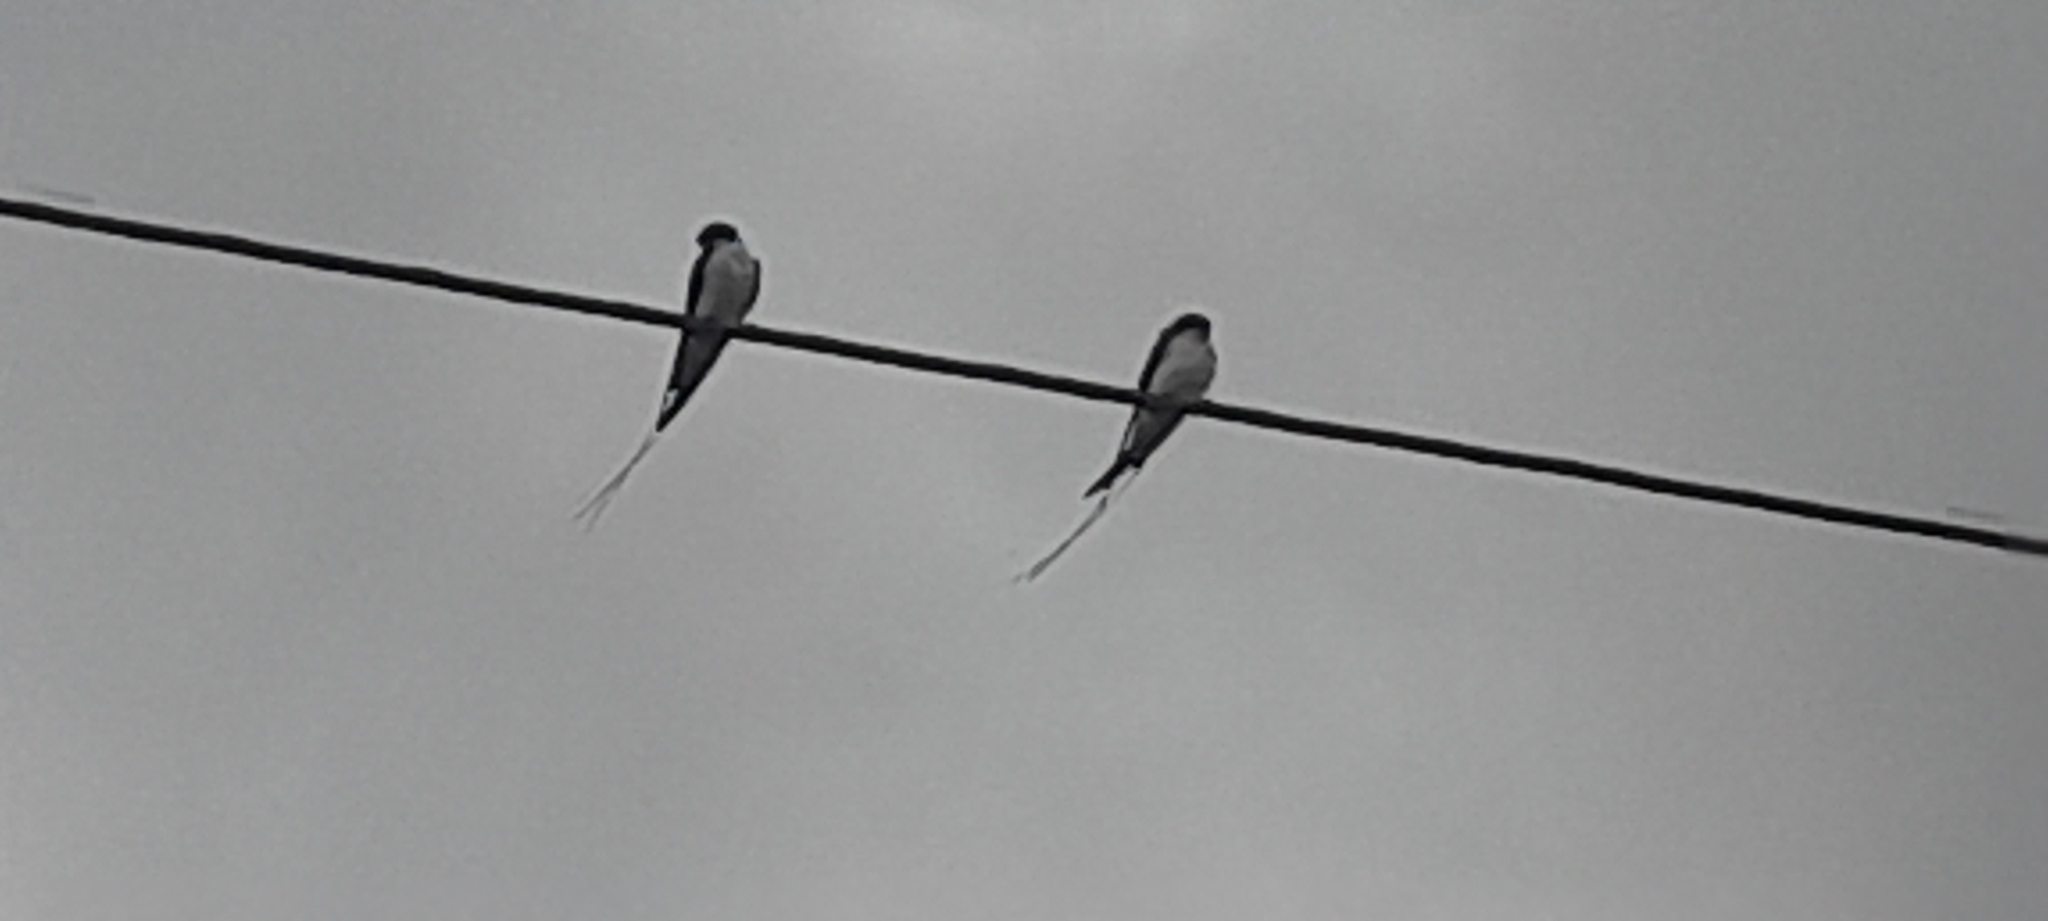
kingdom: Animalia
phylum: Chordata
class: Aves
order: Passeriformes
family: Hirundinidae
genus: Hirundo
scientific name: Hirundo smithii
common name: Wire-tailed swallow
